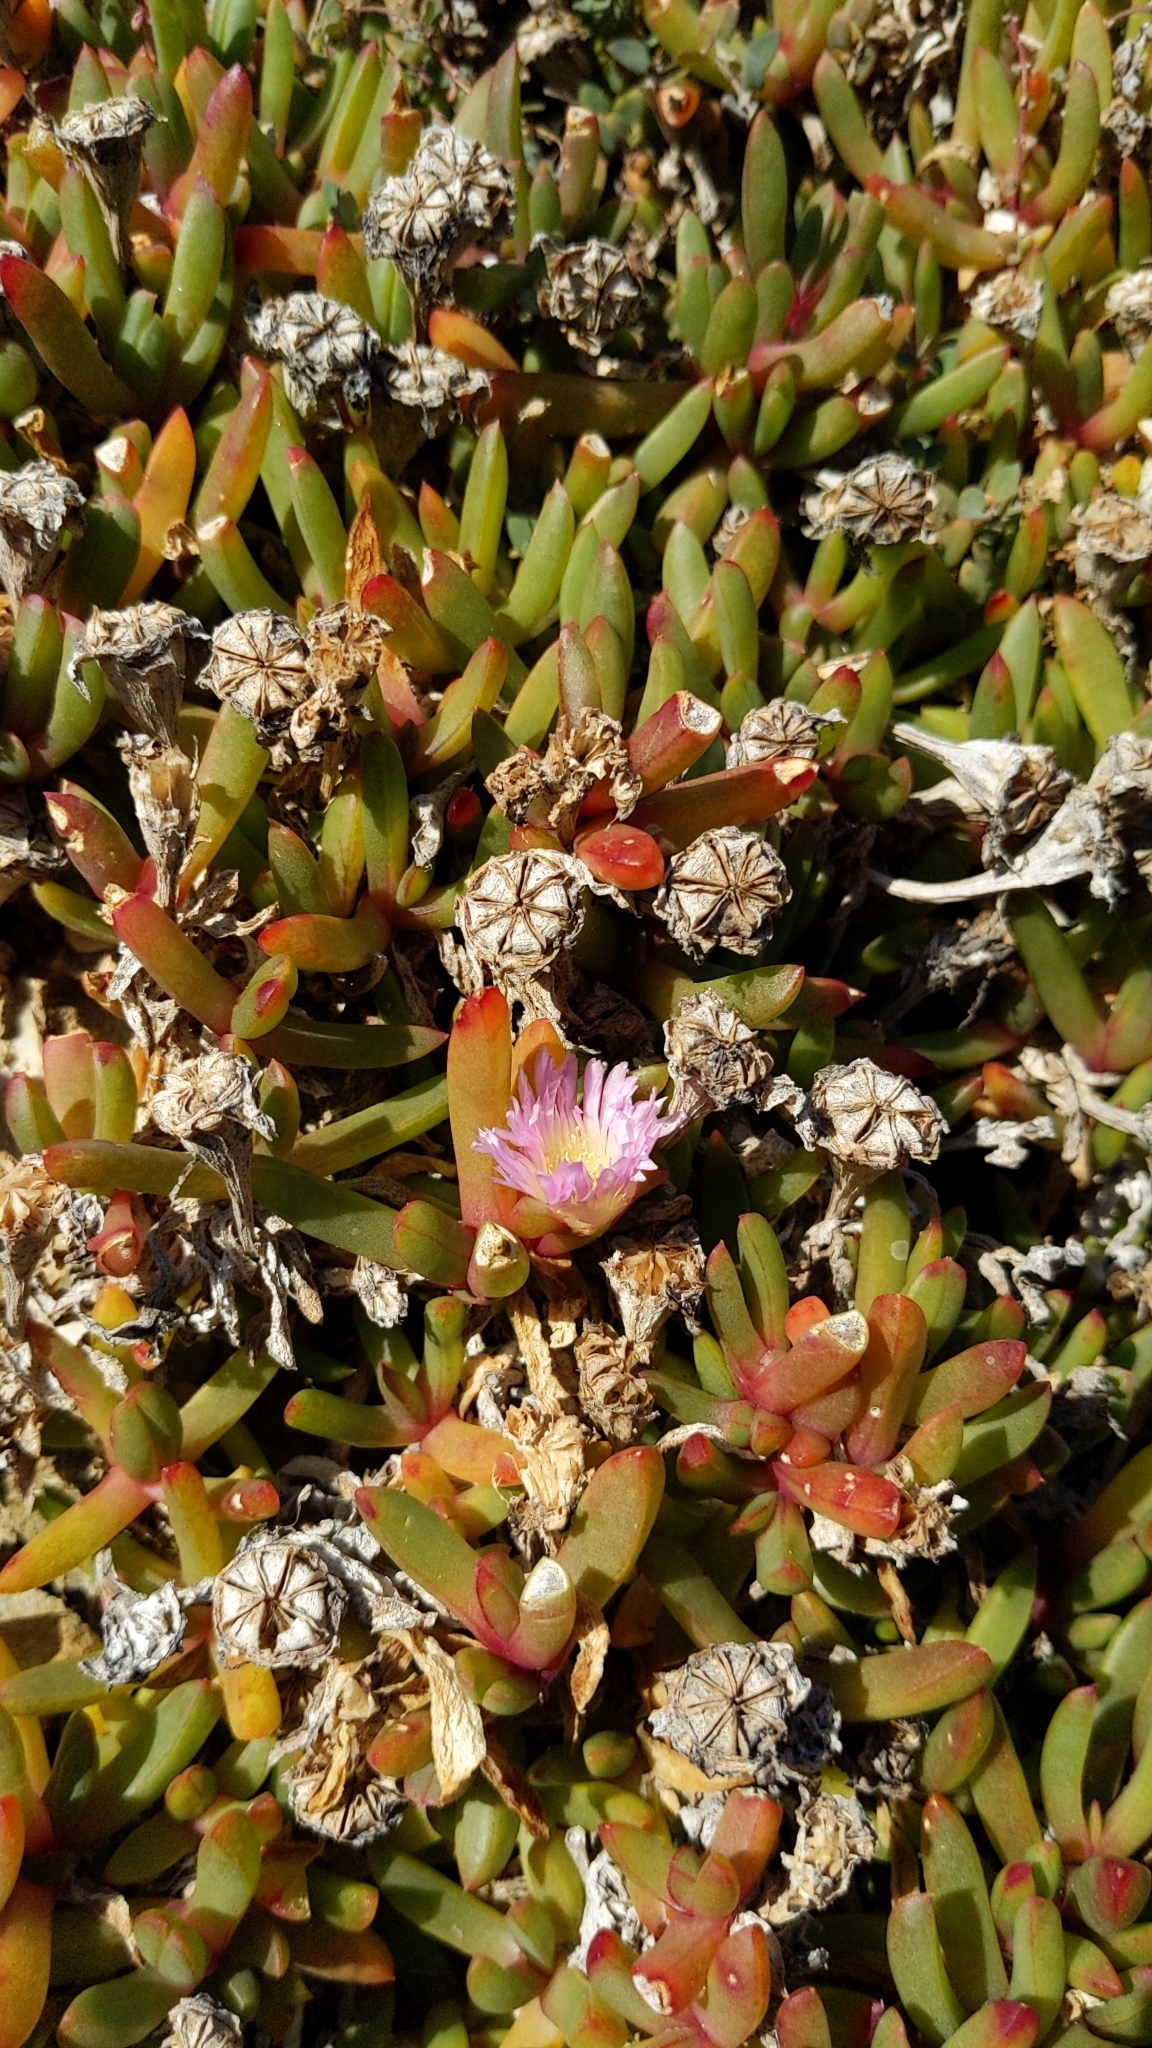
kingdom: Plantae
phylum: Tracheophyta
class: Magnoliopsida
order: Caryophyllales
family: Aizoaceae
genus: Disphyma
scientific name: Disphyma australe
